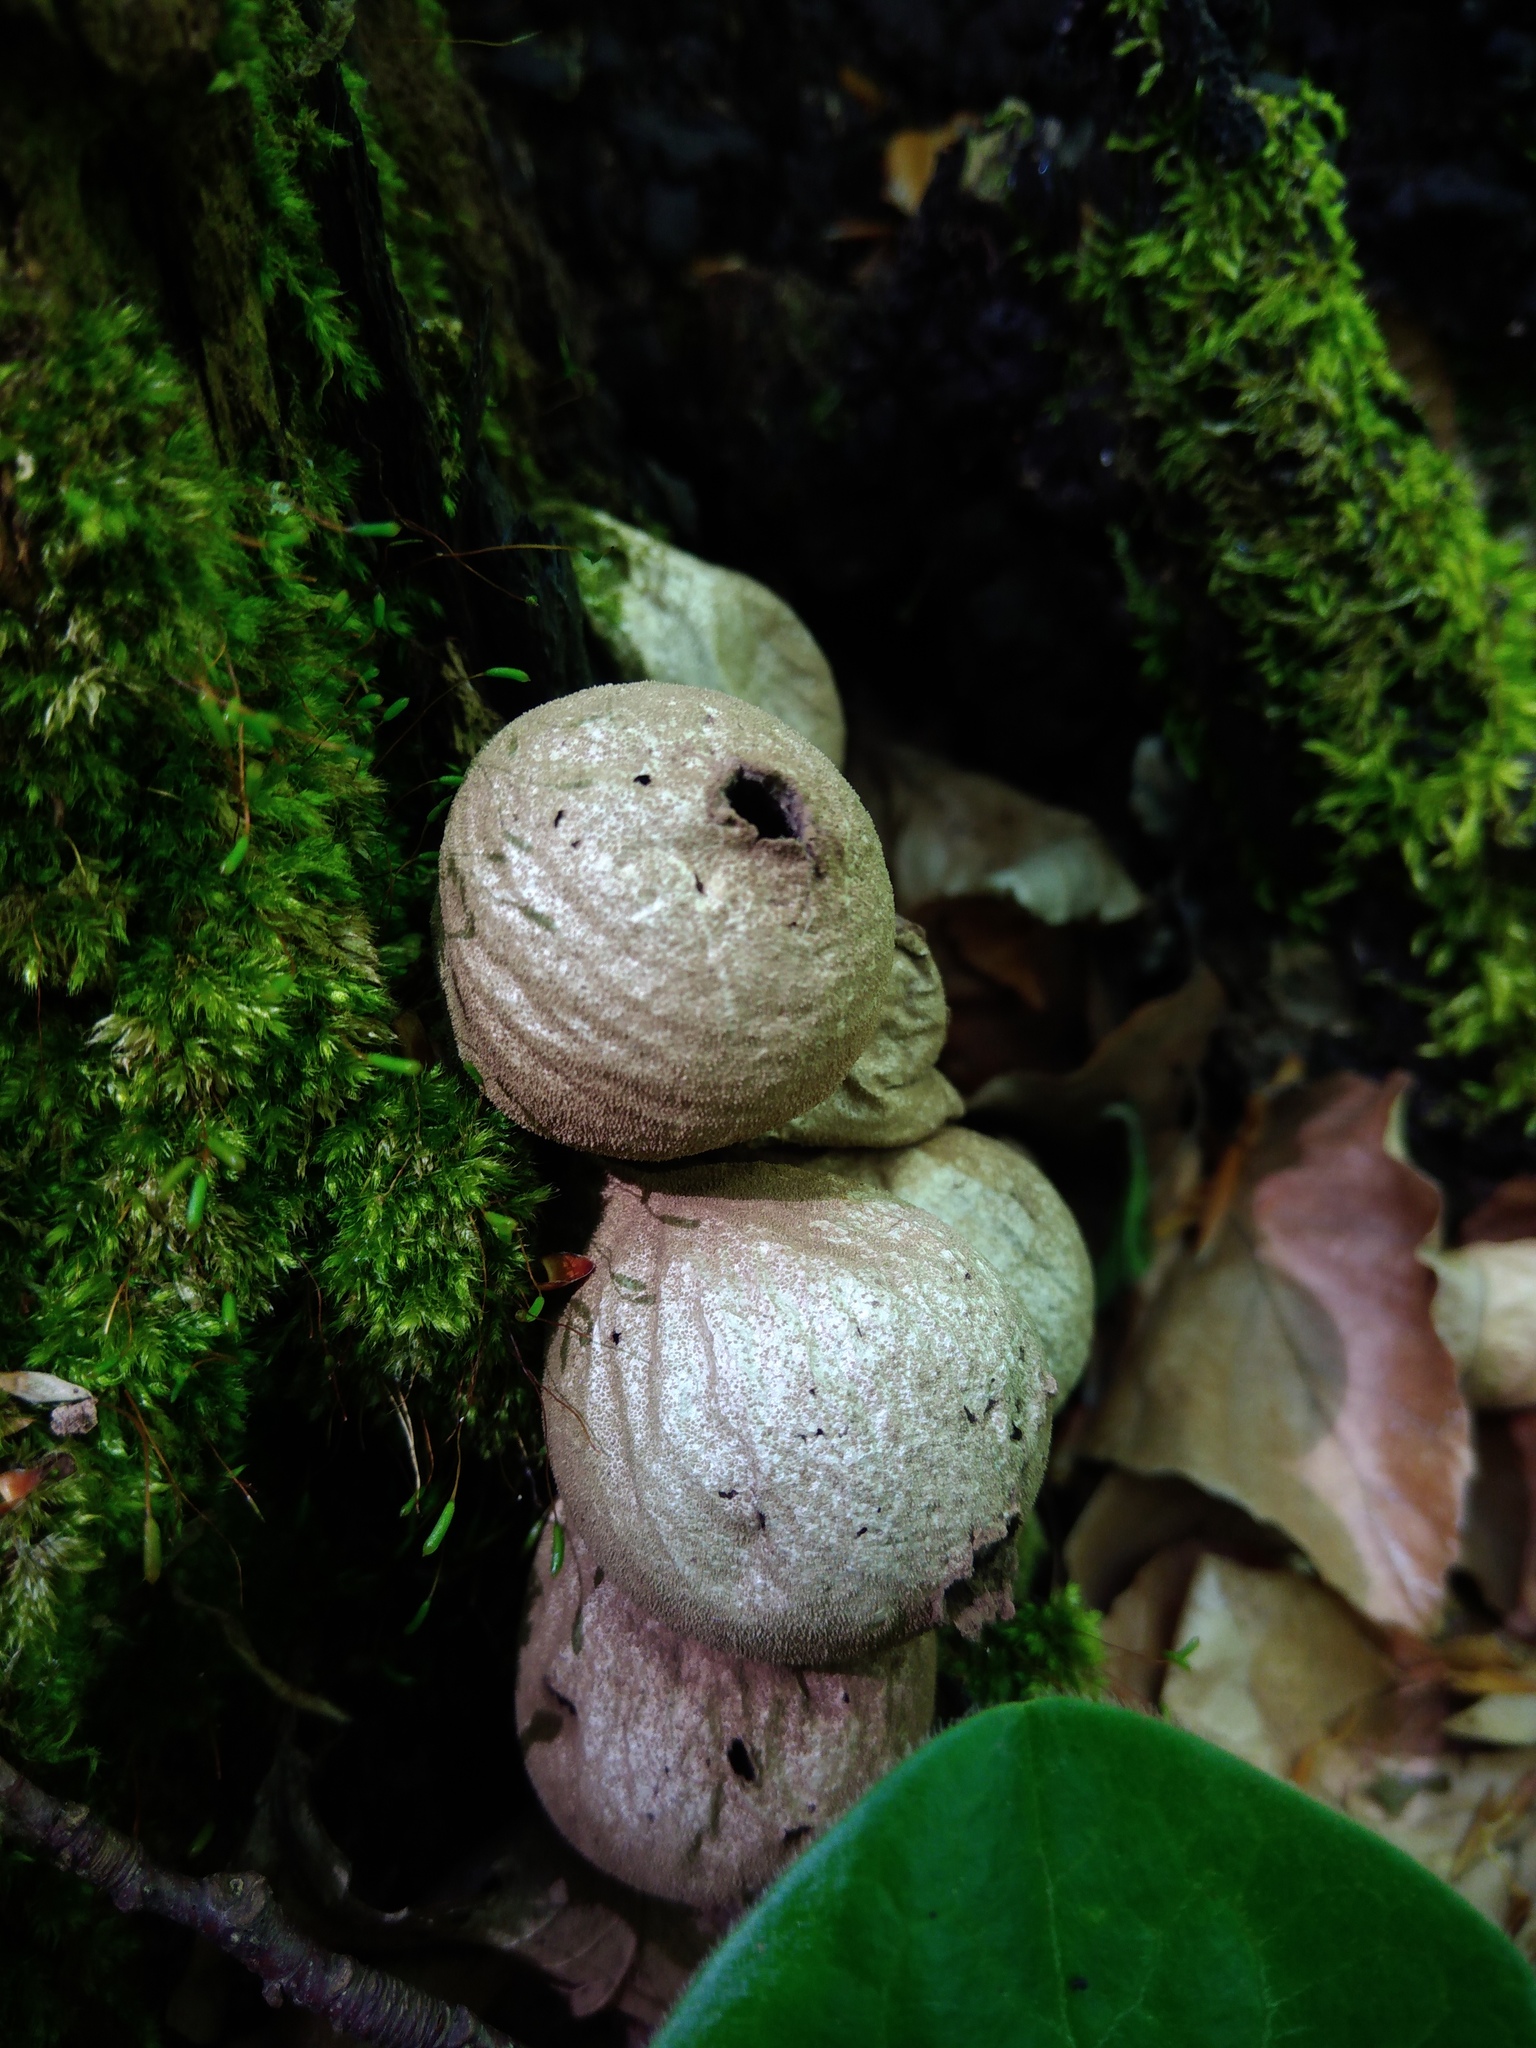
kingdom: Fungi
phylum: Basidiomycota
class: Agaricomycetes
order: Agaricales
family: Lycoperdaceae
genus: Apioperdon
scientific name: Apioperdon pyriforme
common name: Pear-shaped puffball
